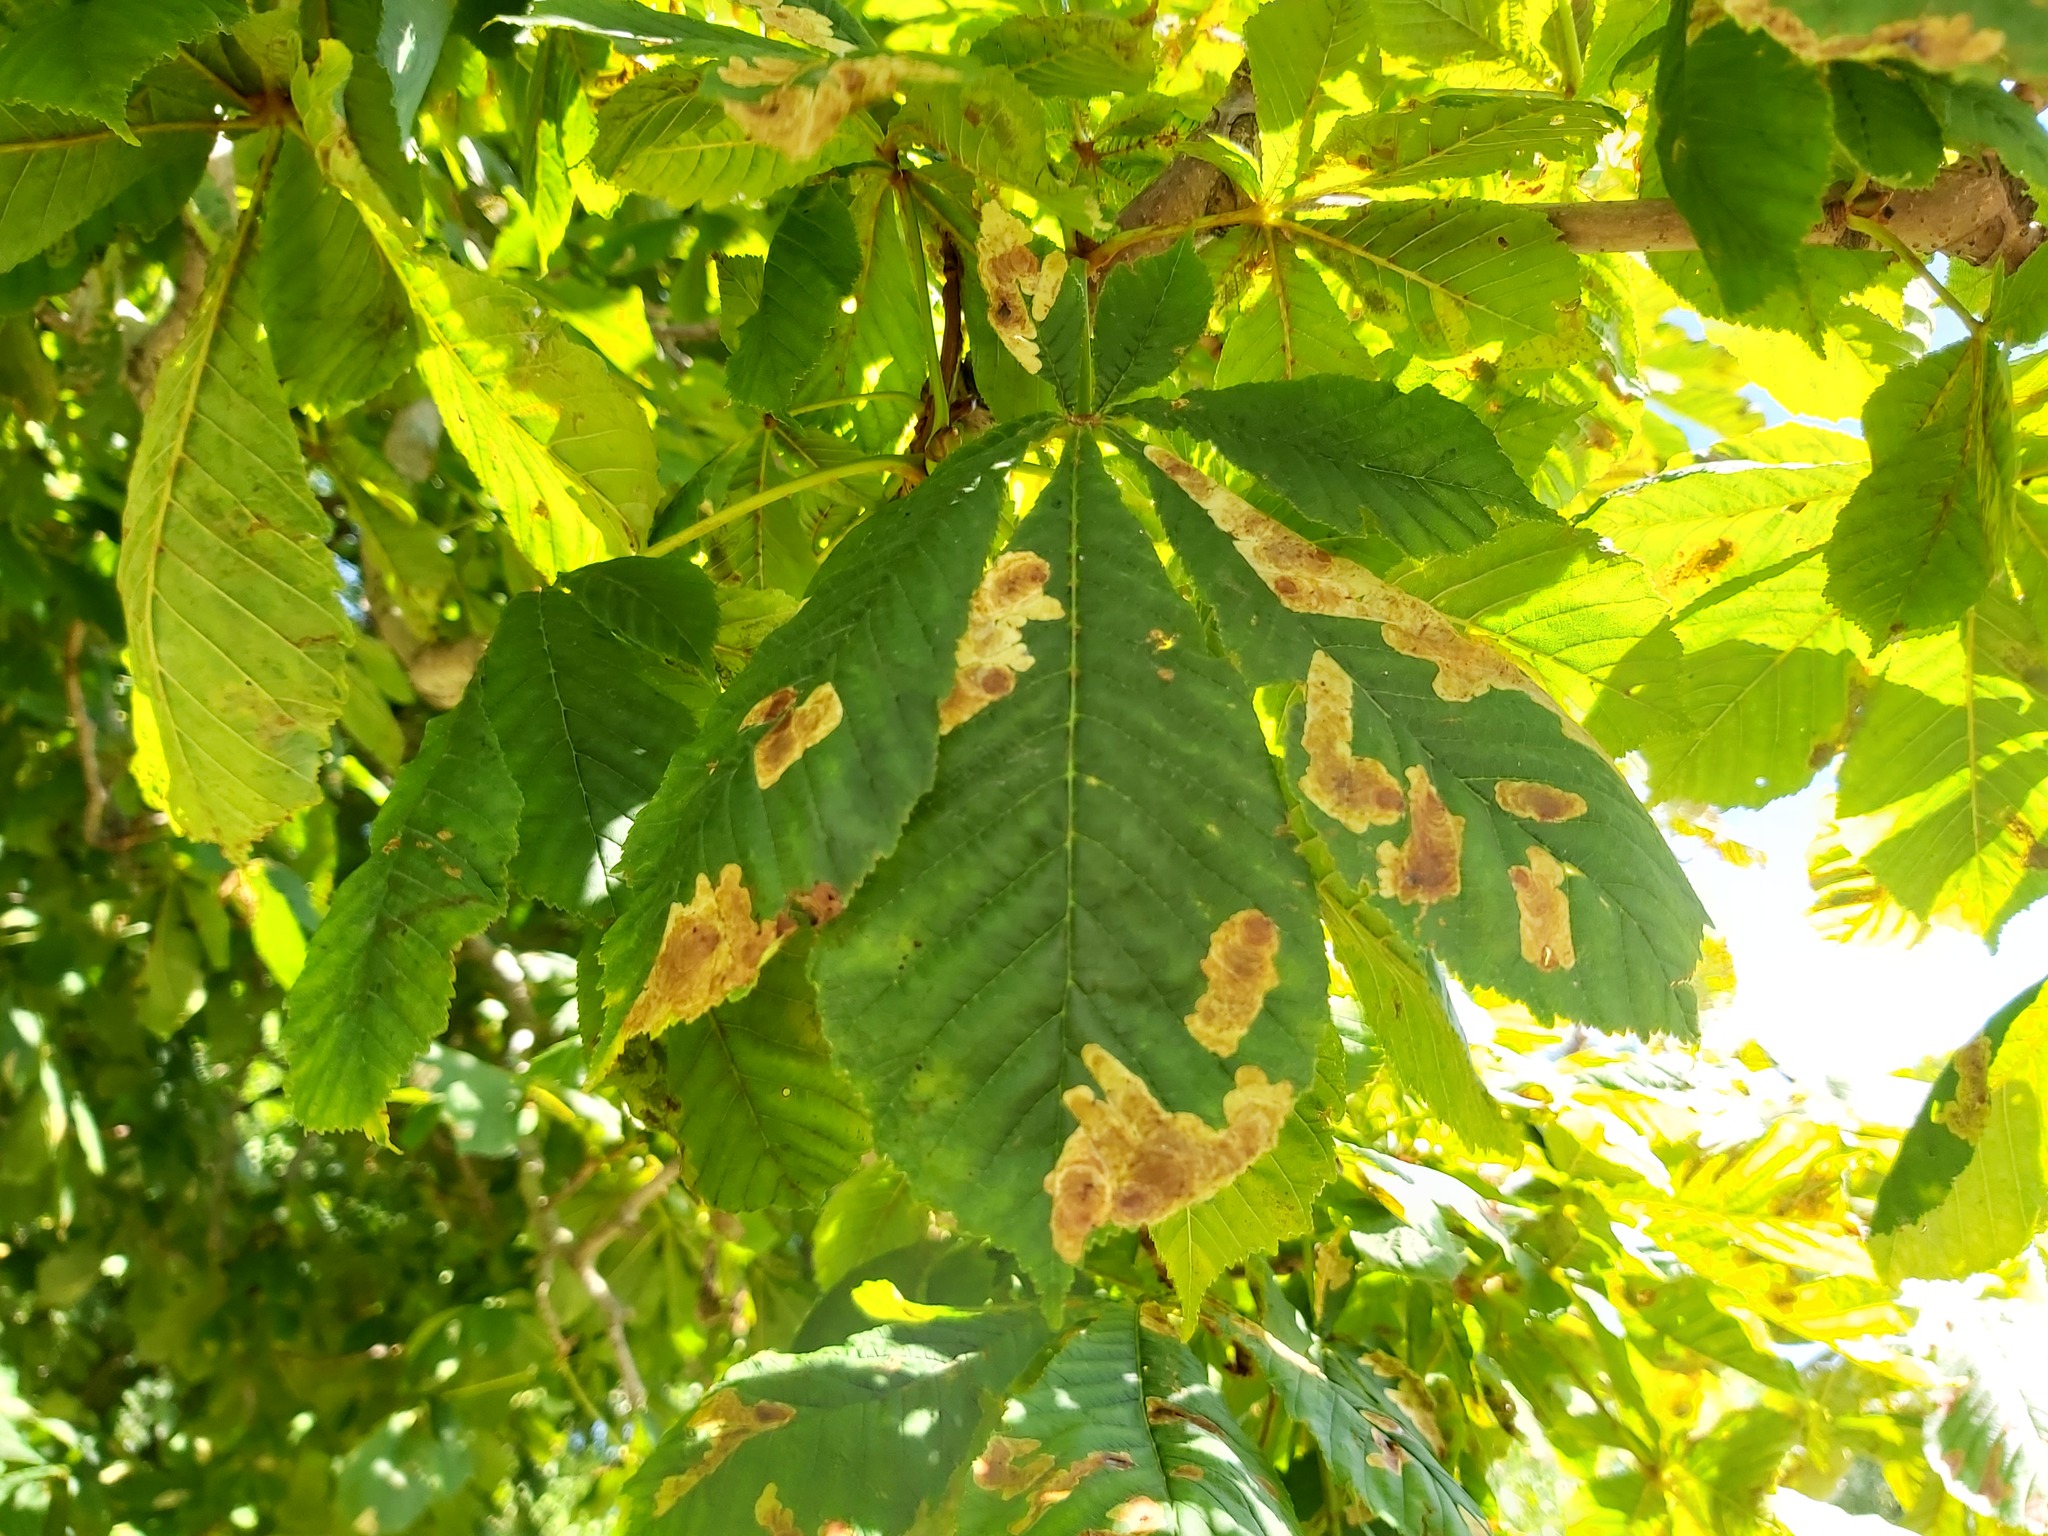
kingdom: Animalia
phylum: Arthropoda
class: Insecta
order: Lepidoptera
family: Gracillariidae
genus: Cameraria
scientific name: Cameraria ohridella
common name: Horse-chestnut leaf-miner
